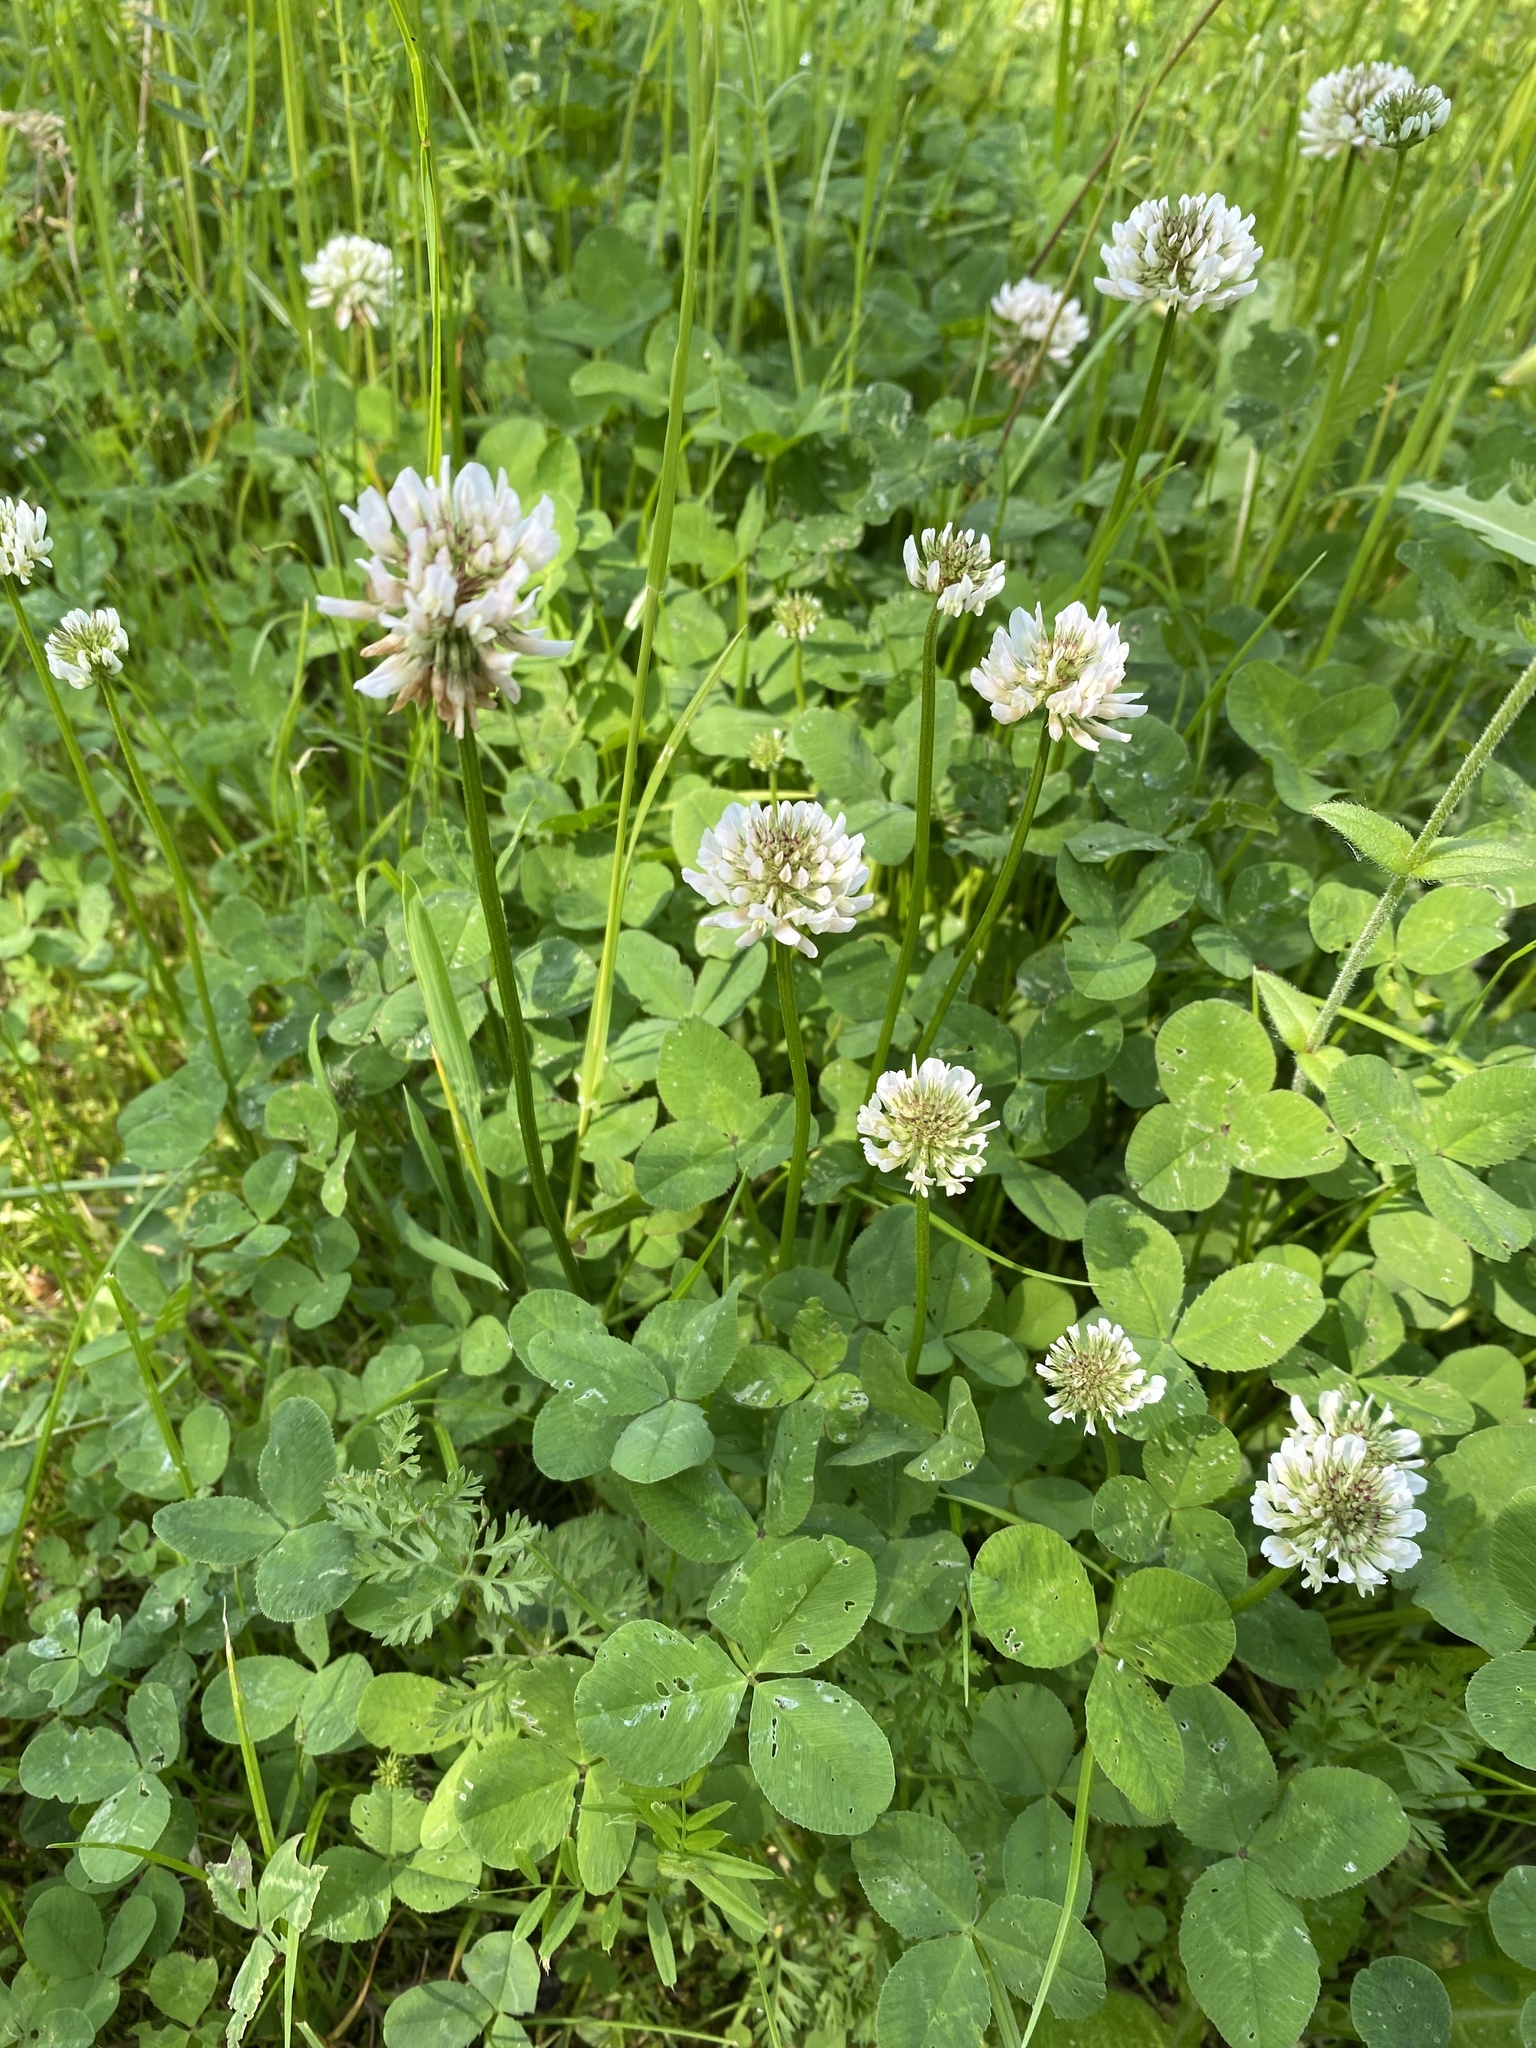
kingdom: Plantae
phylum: Tracheophyta
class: Magnoliopsida
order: Fabales
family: Fabaceae
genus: Trifolium
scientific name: Trifolium repens
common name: White clover
